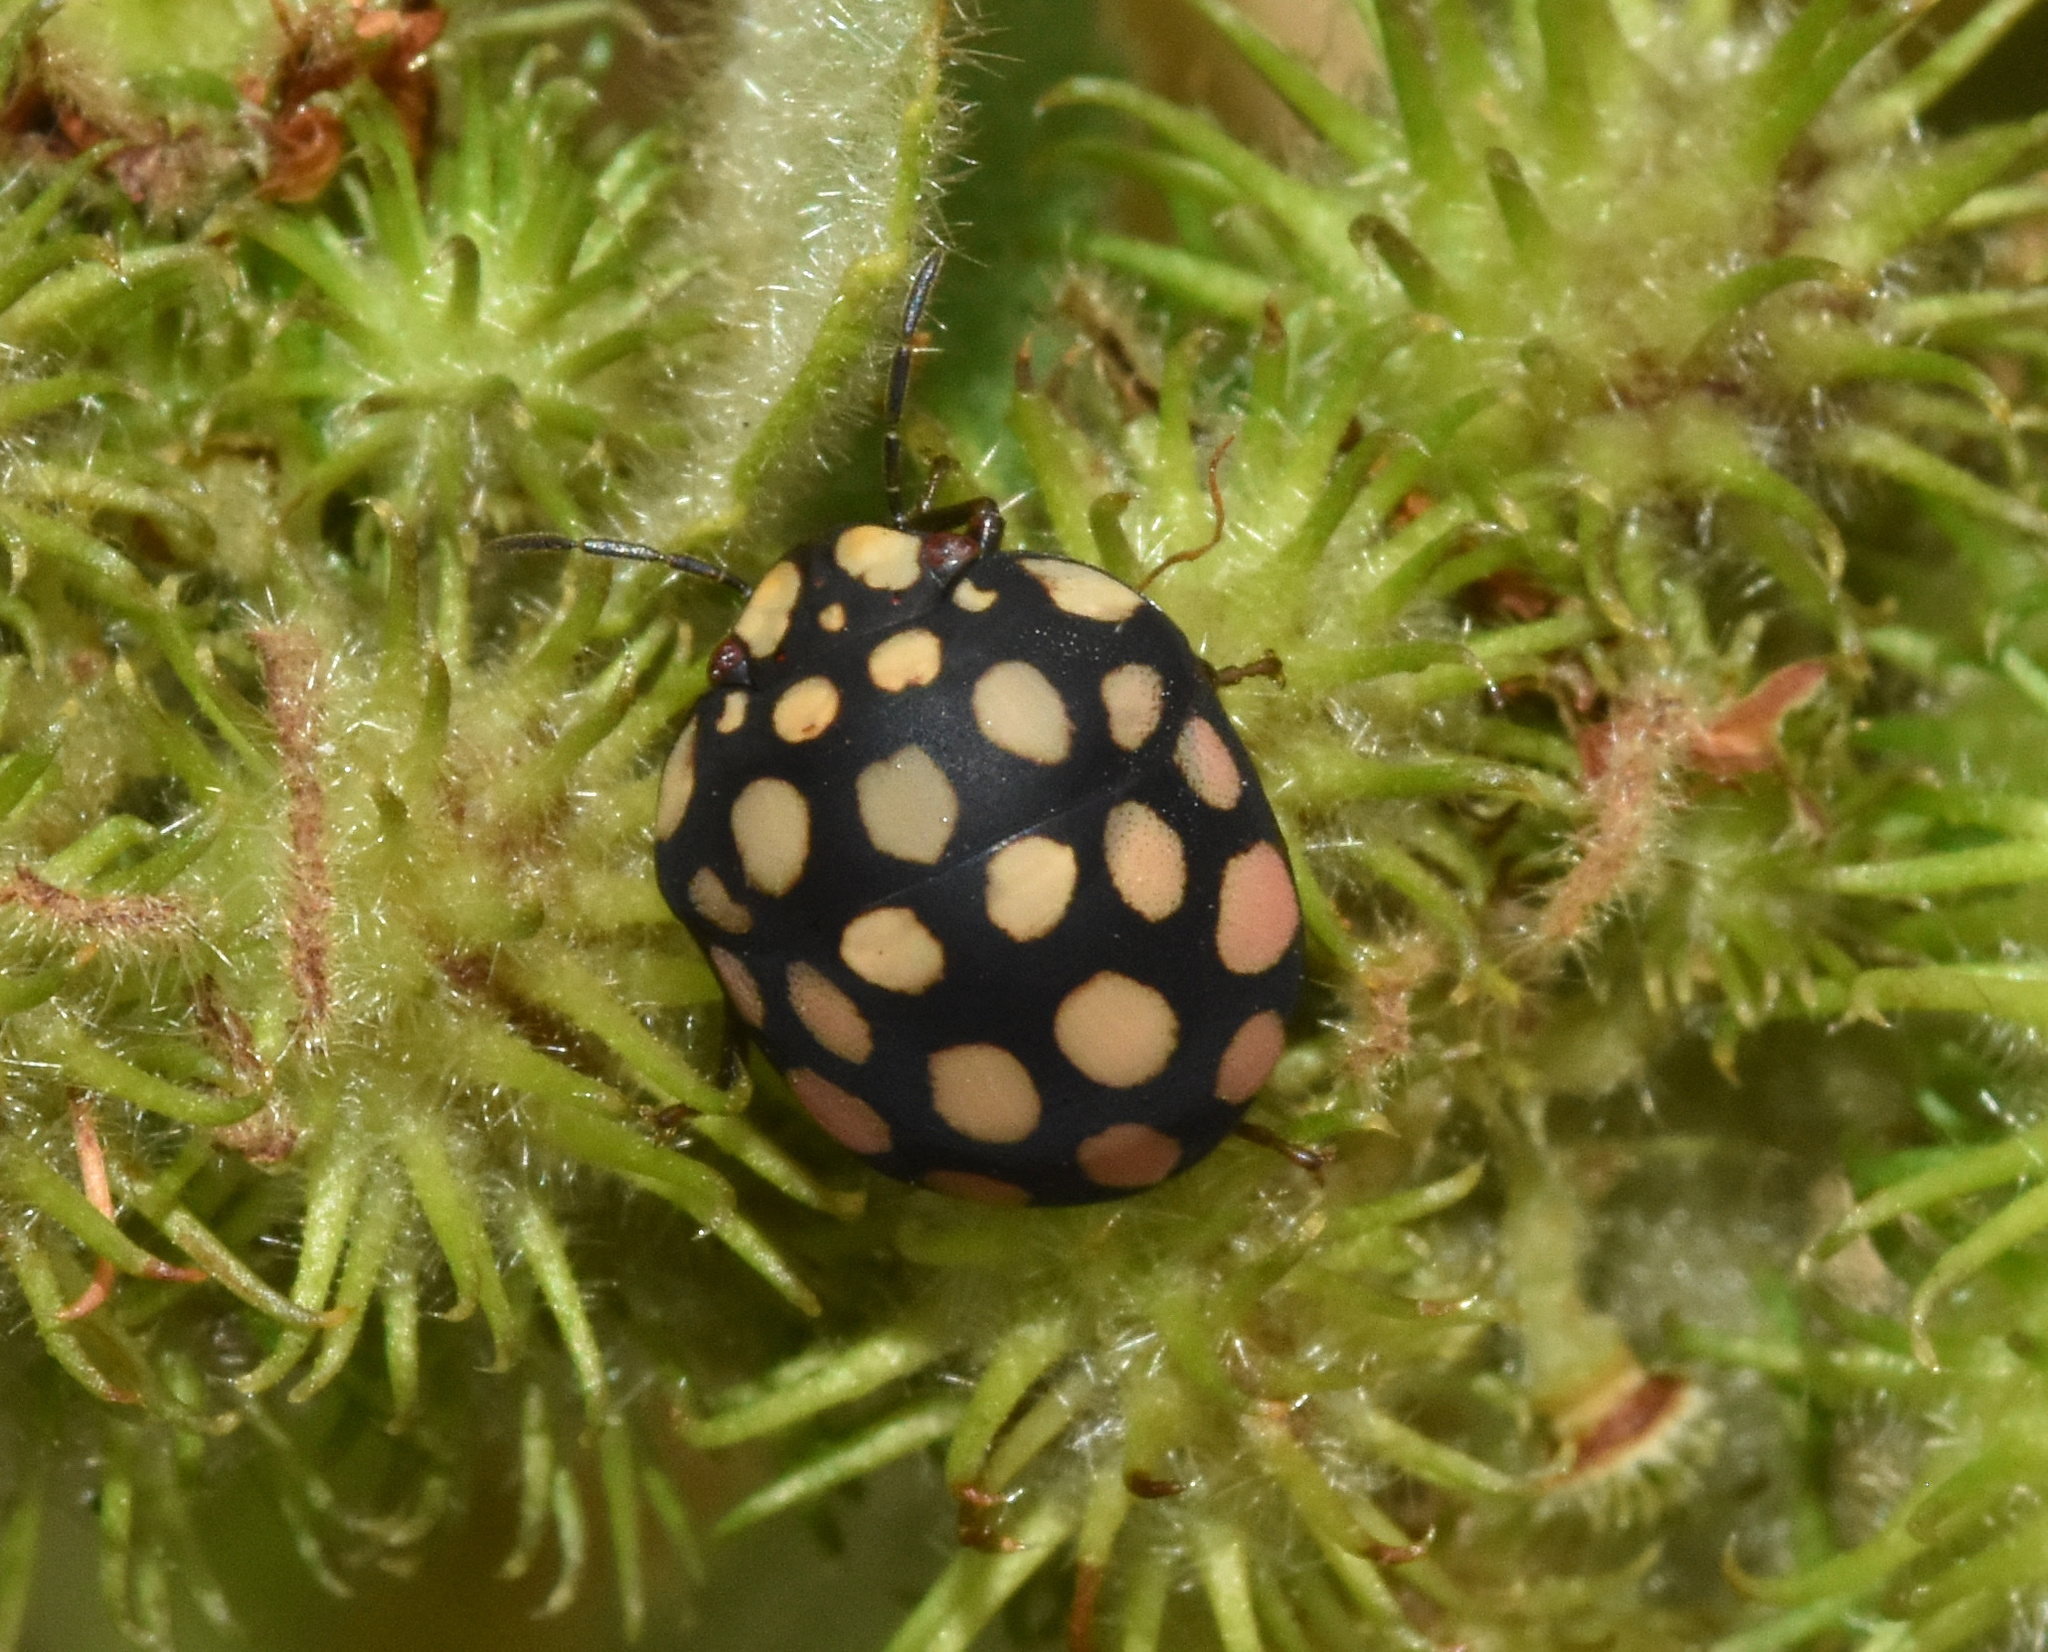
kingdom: Animalia
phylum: Arthropoda
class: Insecta
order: Hemiptera
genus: Steganocerus
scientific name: Steganocerus multipunctatus
